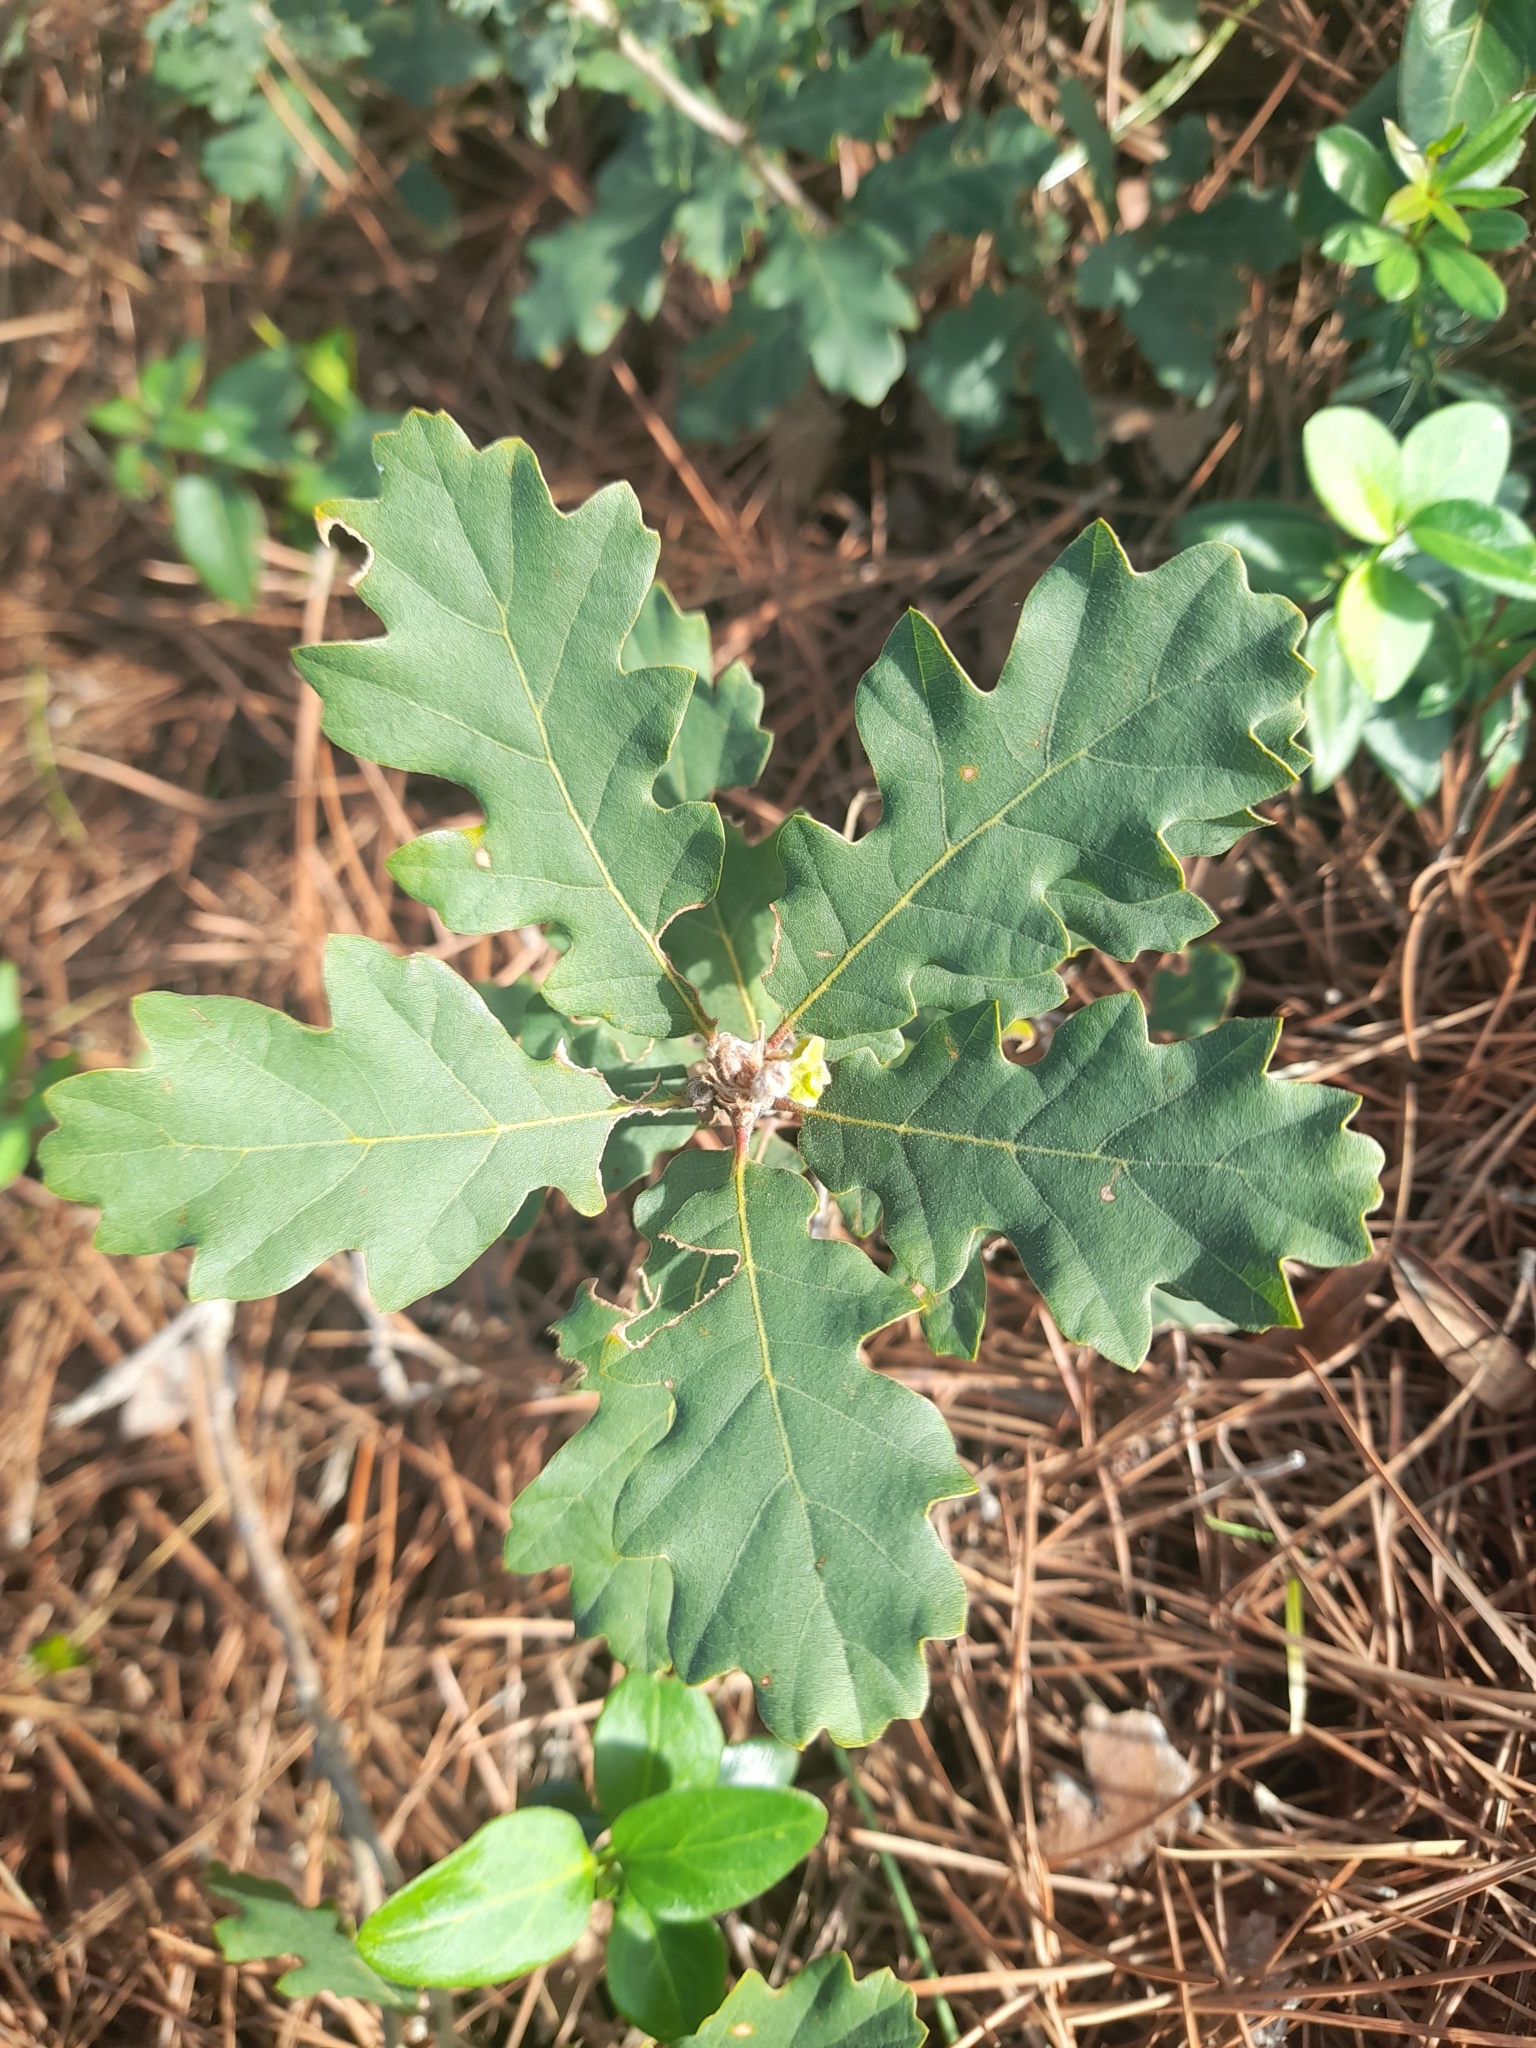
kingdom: Plantae
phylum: Tracheophyta
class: Magnoliopsida
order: Fagales
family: Fagaceae
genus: Quercus
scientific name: Quercus pubescens
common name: Downy oak
